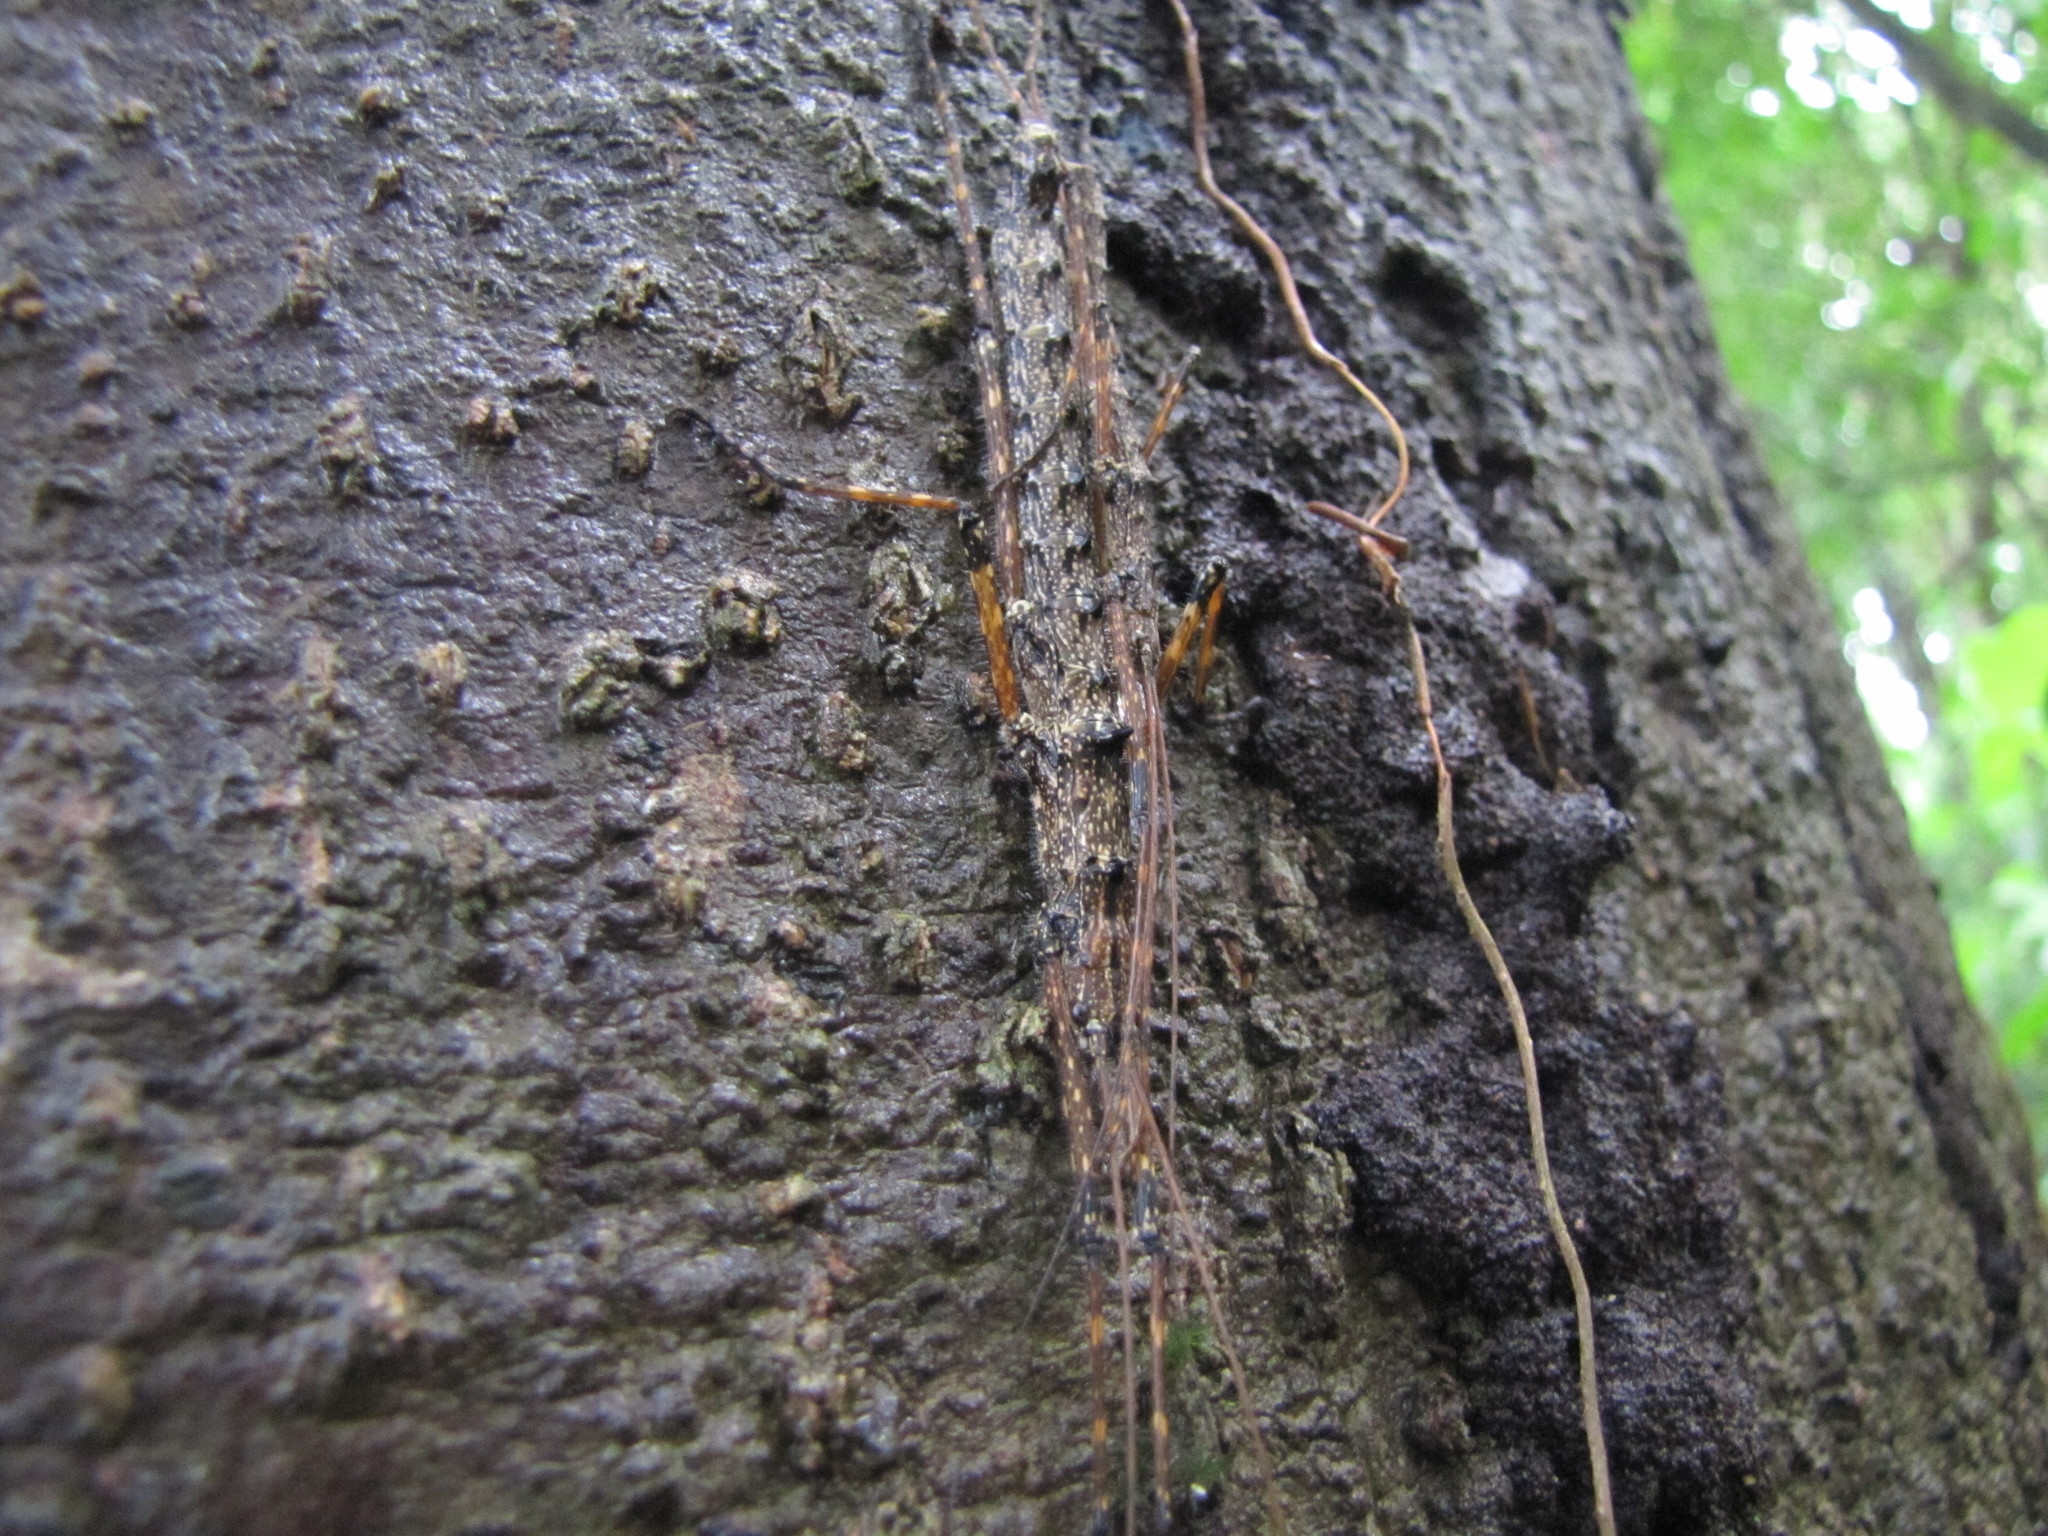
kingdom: Animalia
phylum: Arthropoda
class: Insecta
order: Phasmida
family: Aschiphasmatidae
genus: Dinophasma
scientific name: Dinophasma nathani
